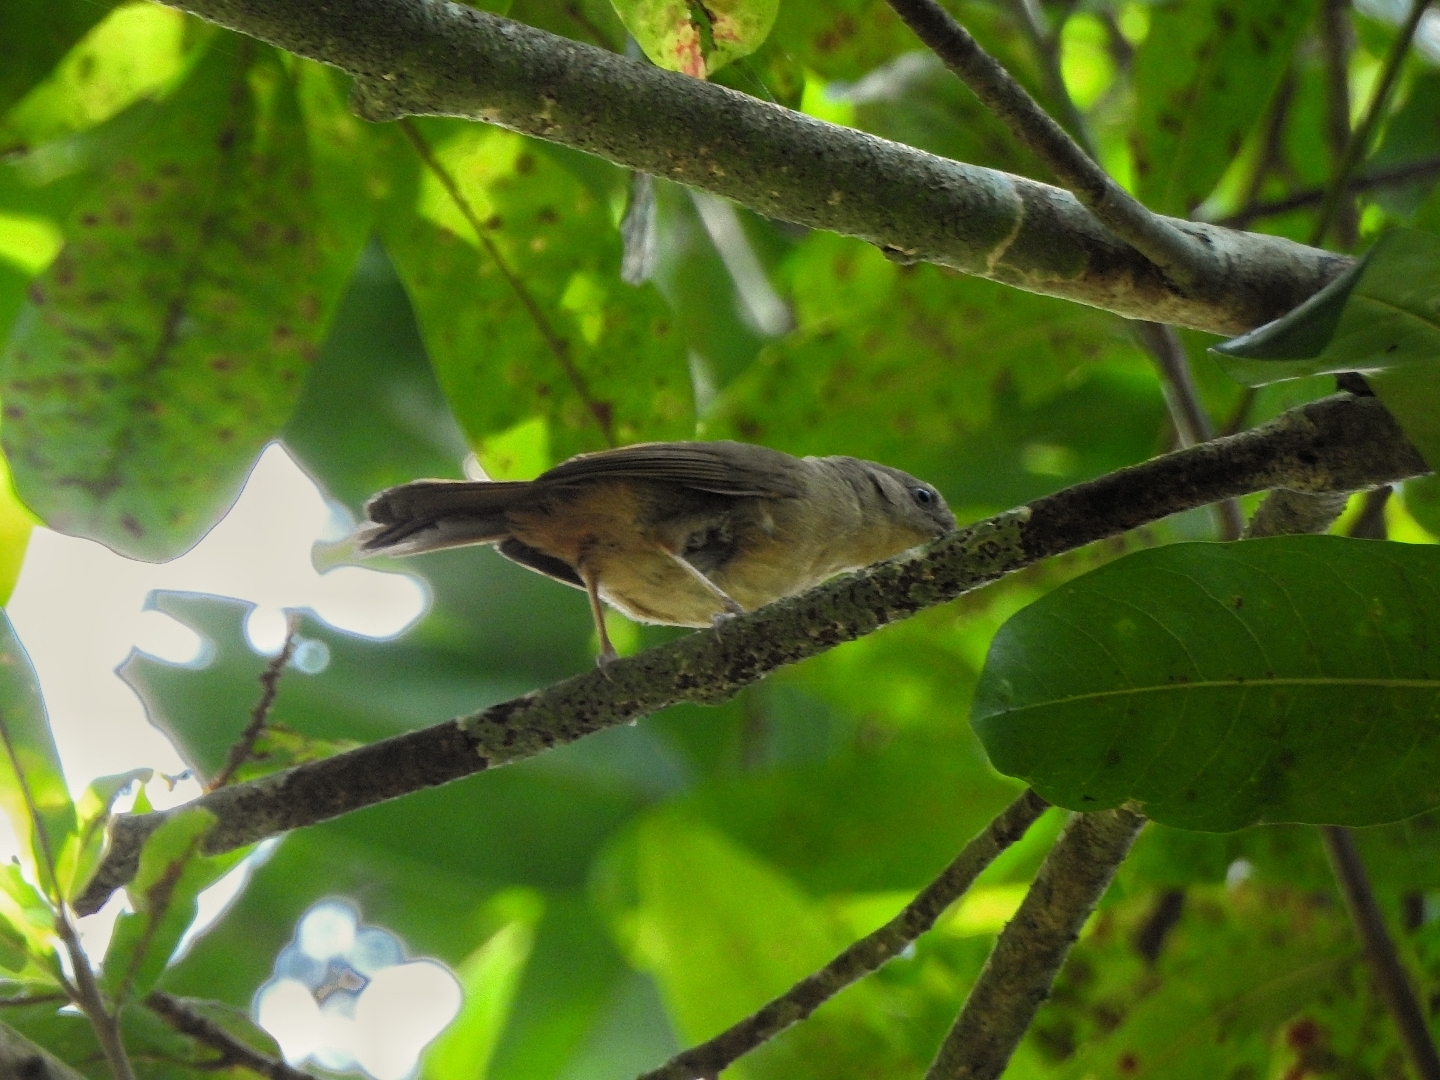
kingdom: Animalia
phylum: Chordata
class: Aves
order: Passeriformes
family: Pellorneidae
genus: Alcippe
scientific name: Alcippe poioicephala
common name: Brown-cheeked fulvetta
